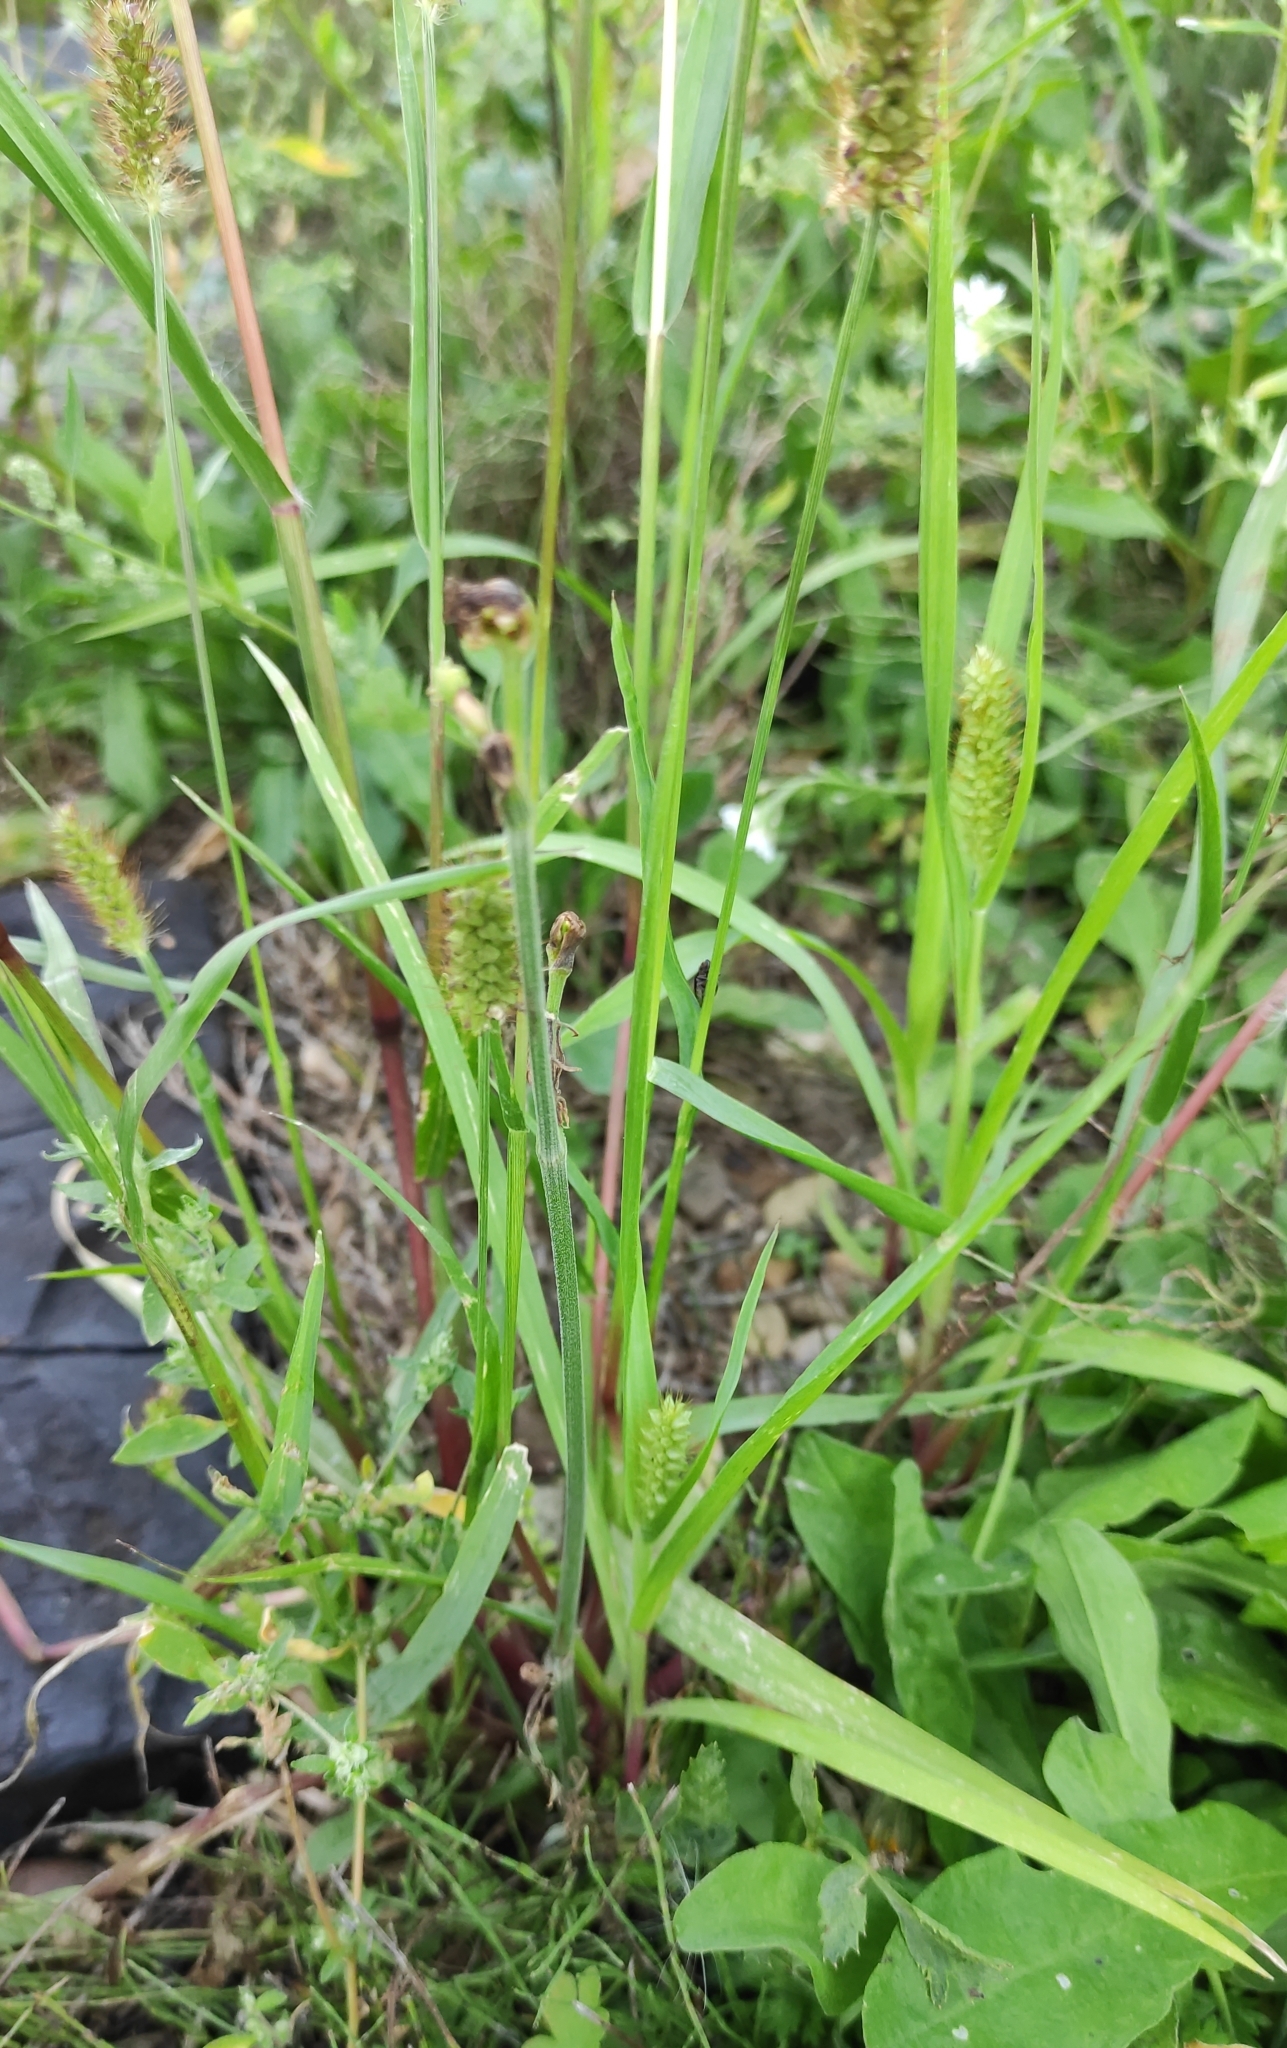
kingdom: Plantae
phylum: Tracheophyta
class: Liliopsida
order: Poales
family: Poaceae
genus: Setaria
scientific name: Setaria pumila
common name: Yellow bristle-grass
